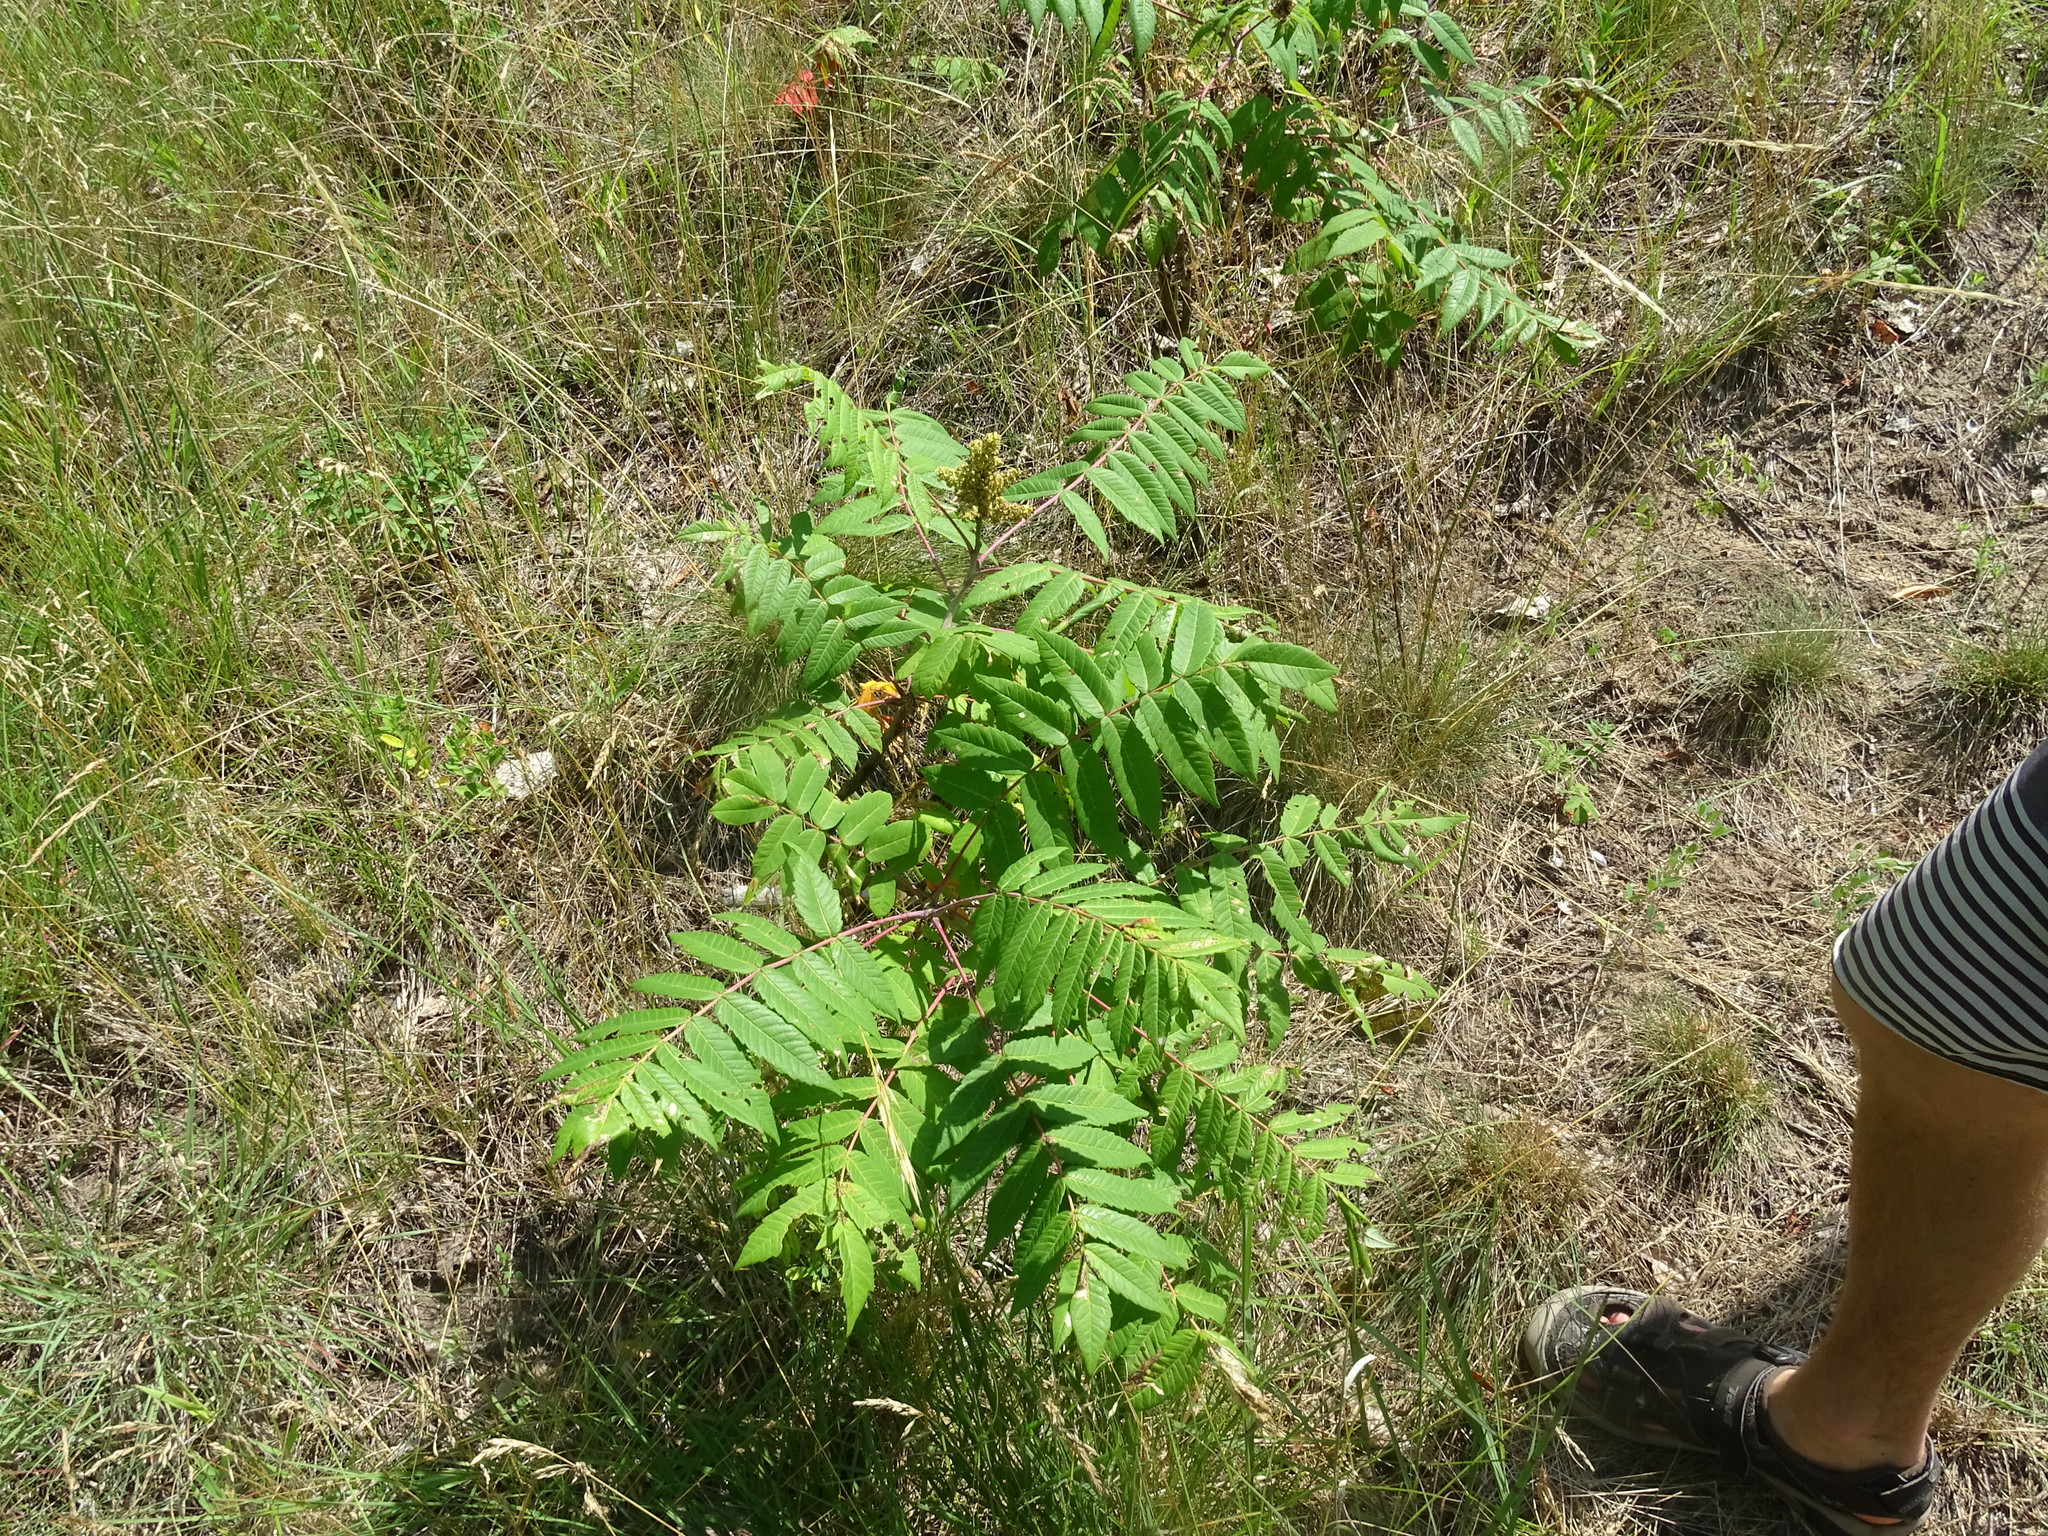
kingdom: Plantae
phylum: Tracheophyta
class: Magnoliopsida
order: Sapindales
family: Anacardiaceae
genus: Rhus
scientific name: Rhus glabra
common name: Scarlet sumac
